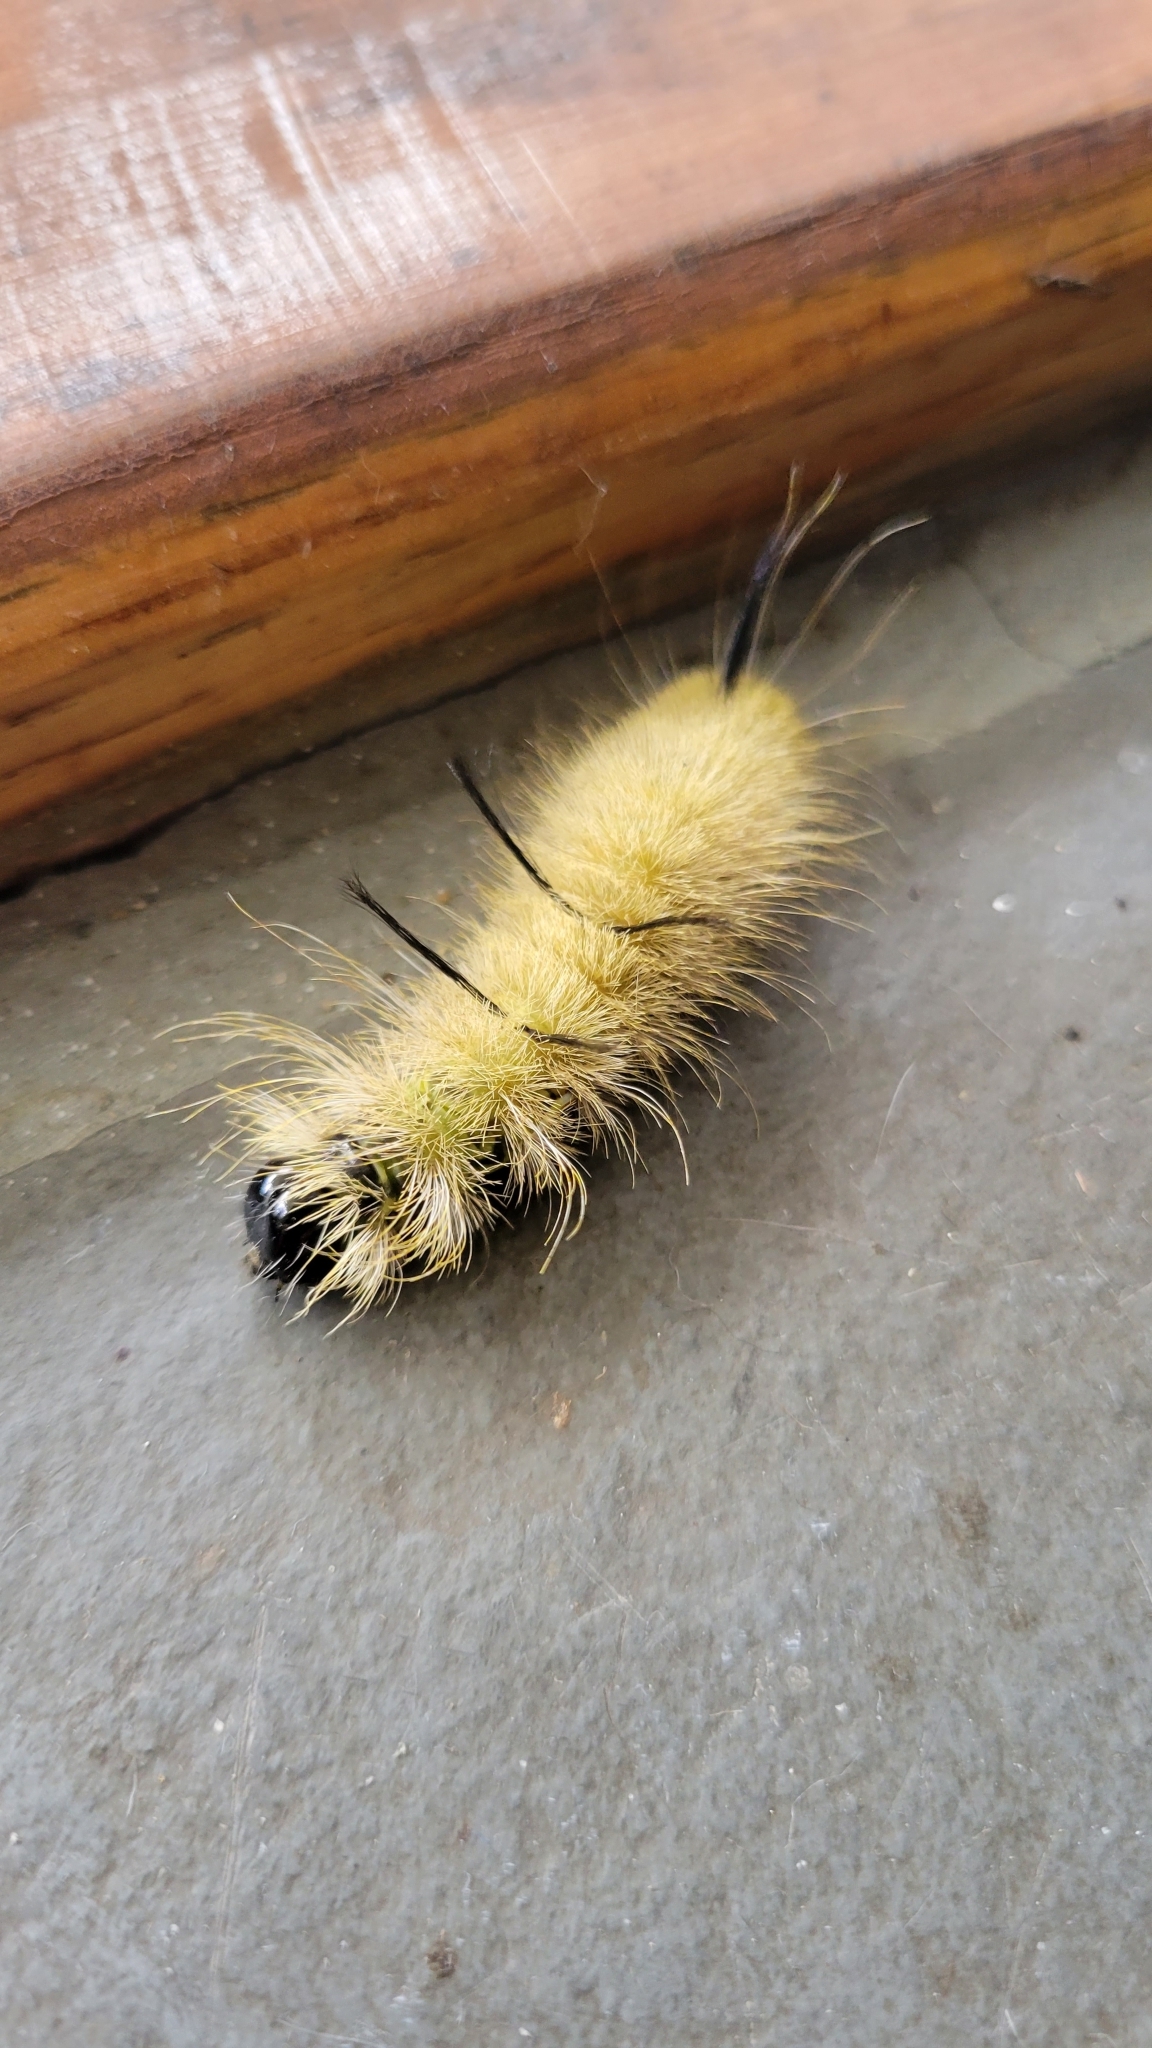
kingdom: Animalia
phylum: Arthropoda
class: Insecta
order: Lepidoptera
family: Noctuidae
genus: Acronicta
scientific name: Acronicta americana
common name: American dagger
